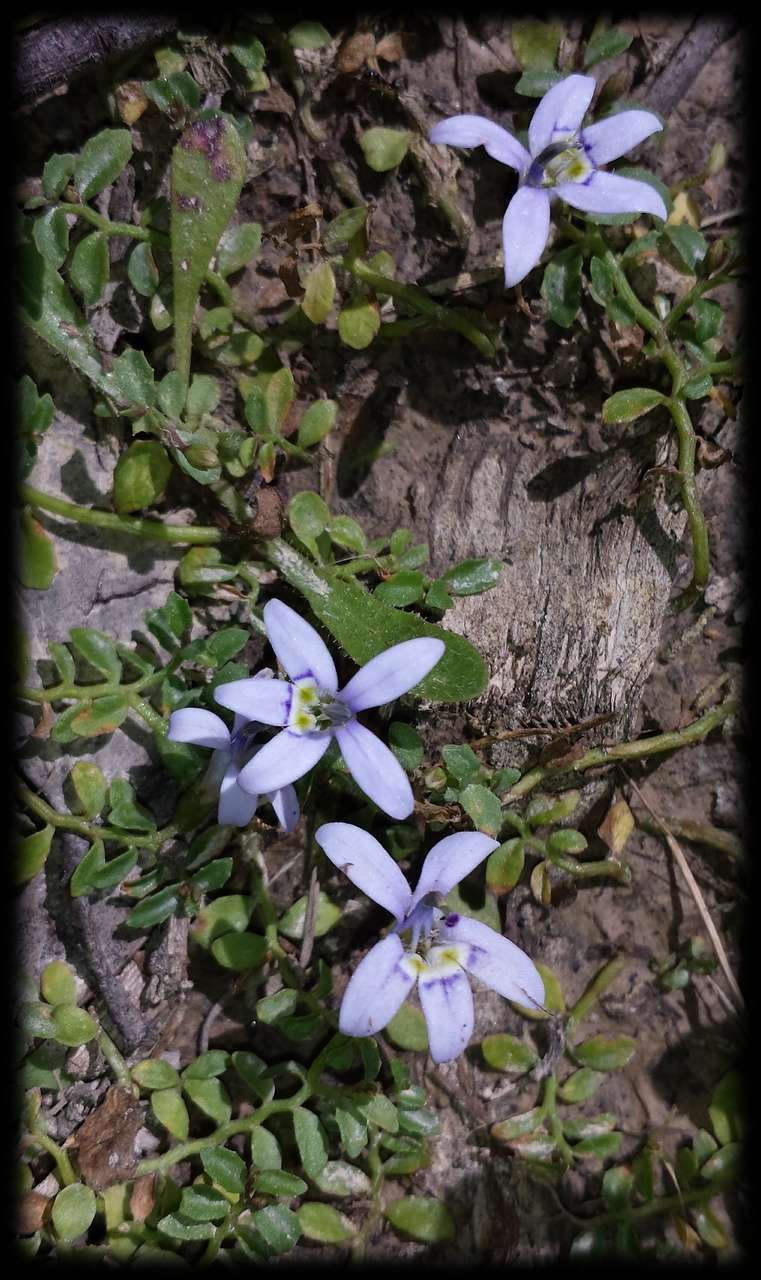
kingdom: Plantae
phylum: Tracheophyta
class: Magnoliopsida
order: Asterales
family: Campanulaceae
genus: Isotoma
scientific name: Isotoma fluviatilis
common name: Isotoma
